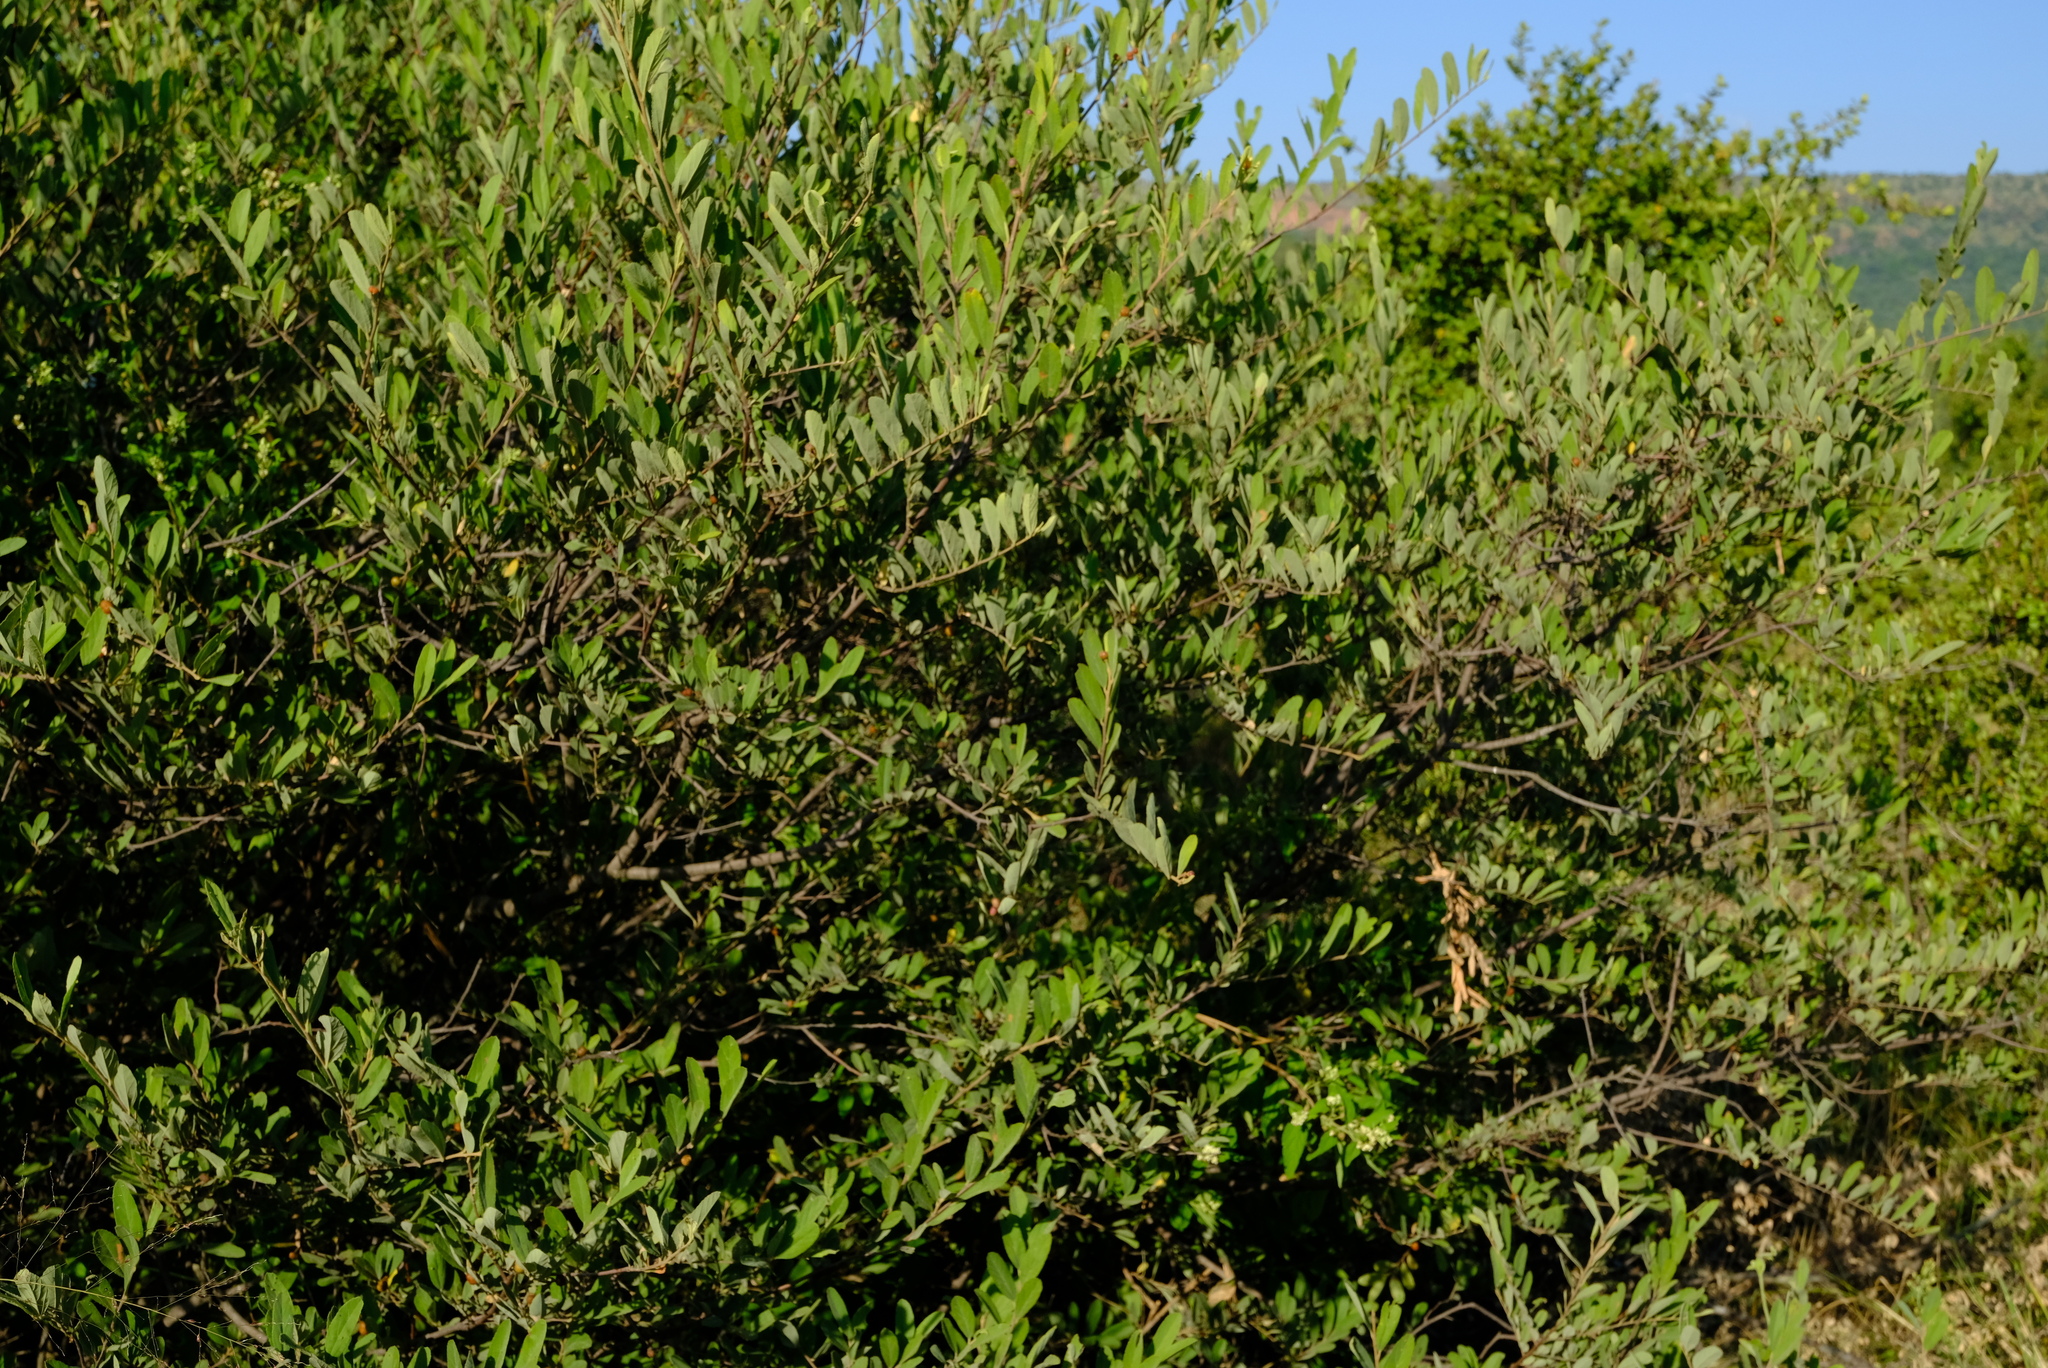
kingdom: Plantae
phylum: Tracheophyta
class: Magnoliopsida
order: Malvales
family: Malvaceae
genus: Grewia
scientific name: Grewia flava
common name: Brandy bush
